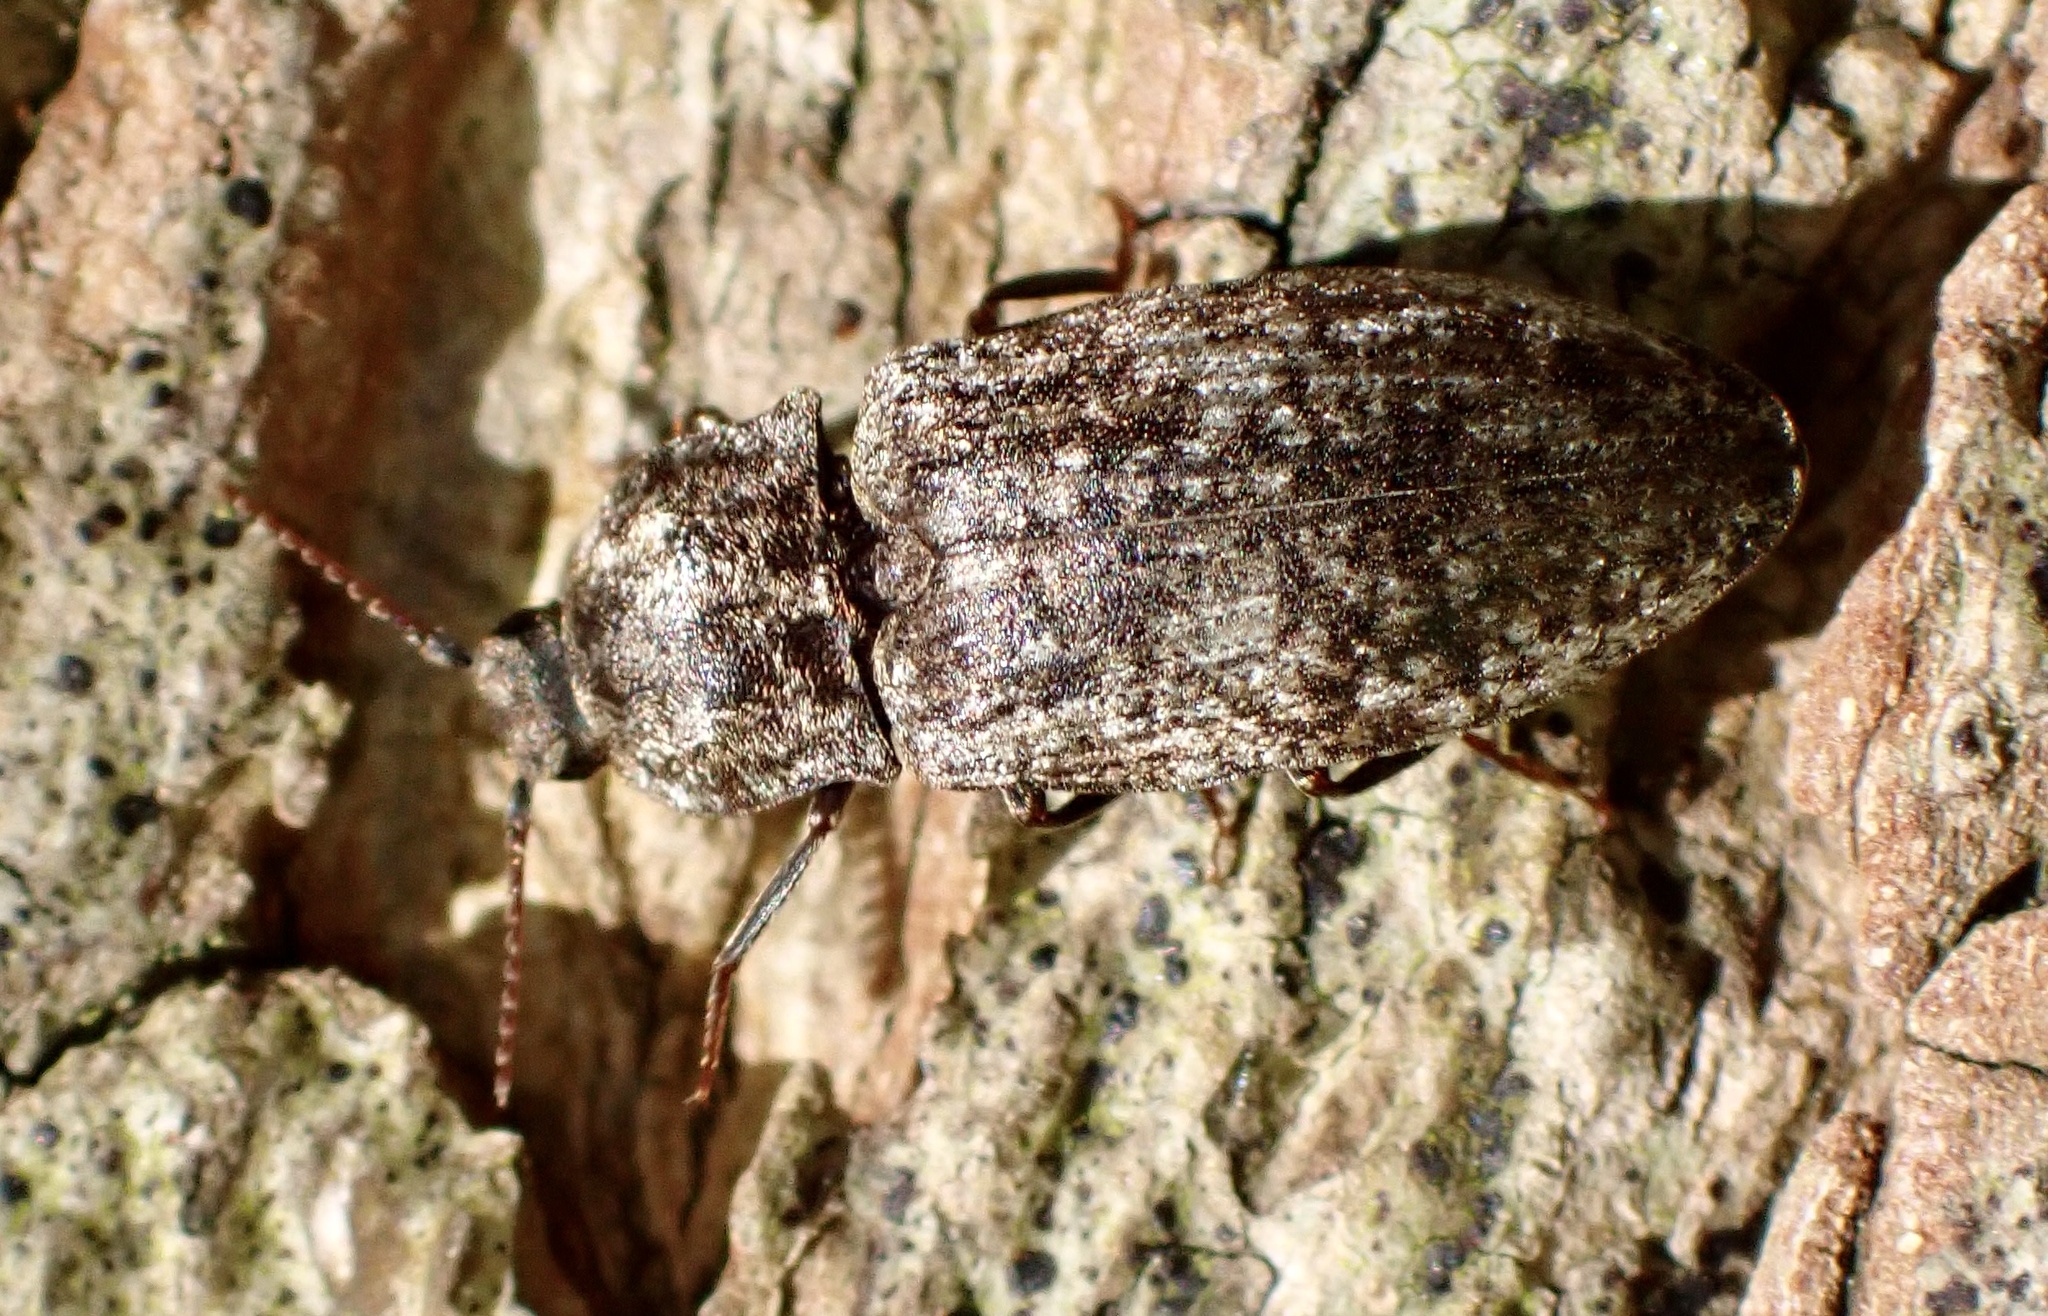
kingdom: Animalia
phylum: Arthropoda
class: Insecta
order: Coleoptera
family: Elateridae
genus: Agrypnus
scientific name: Agrypnus murinus
